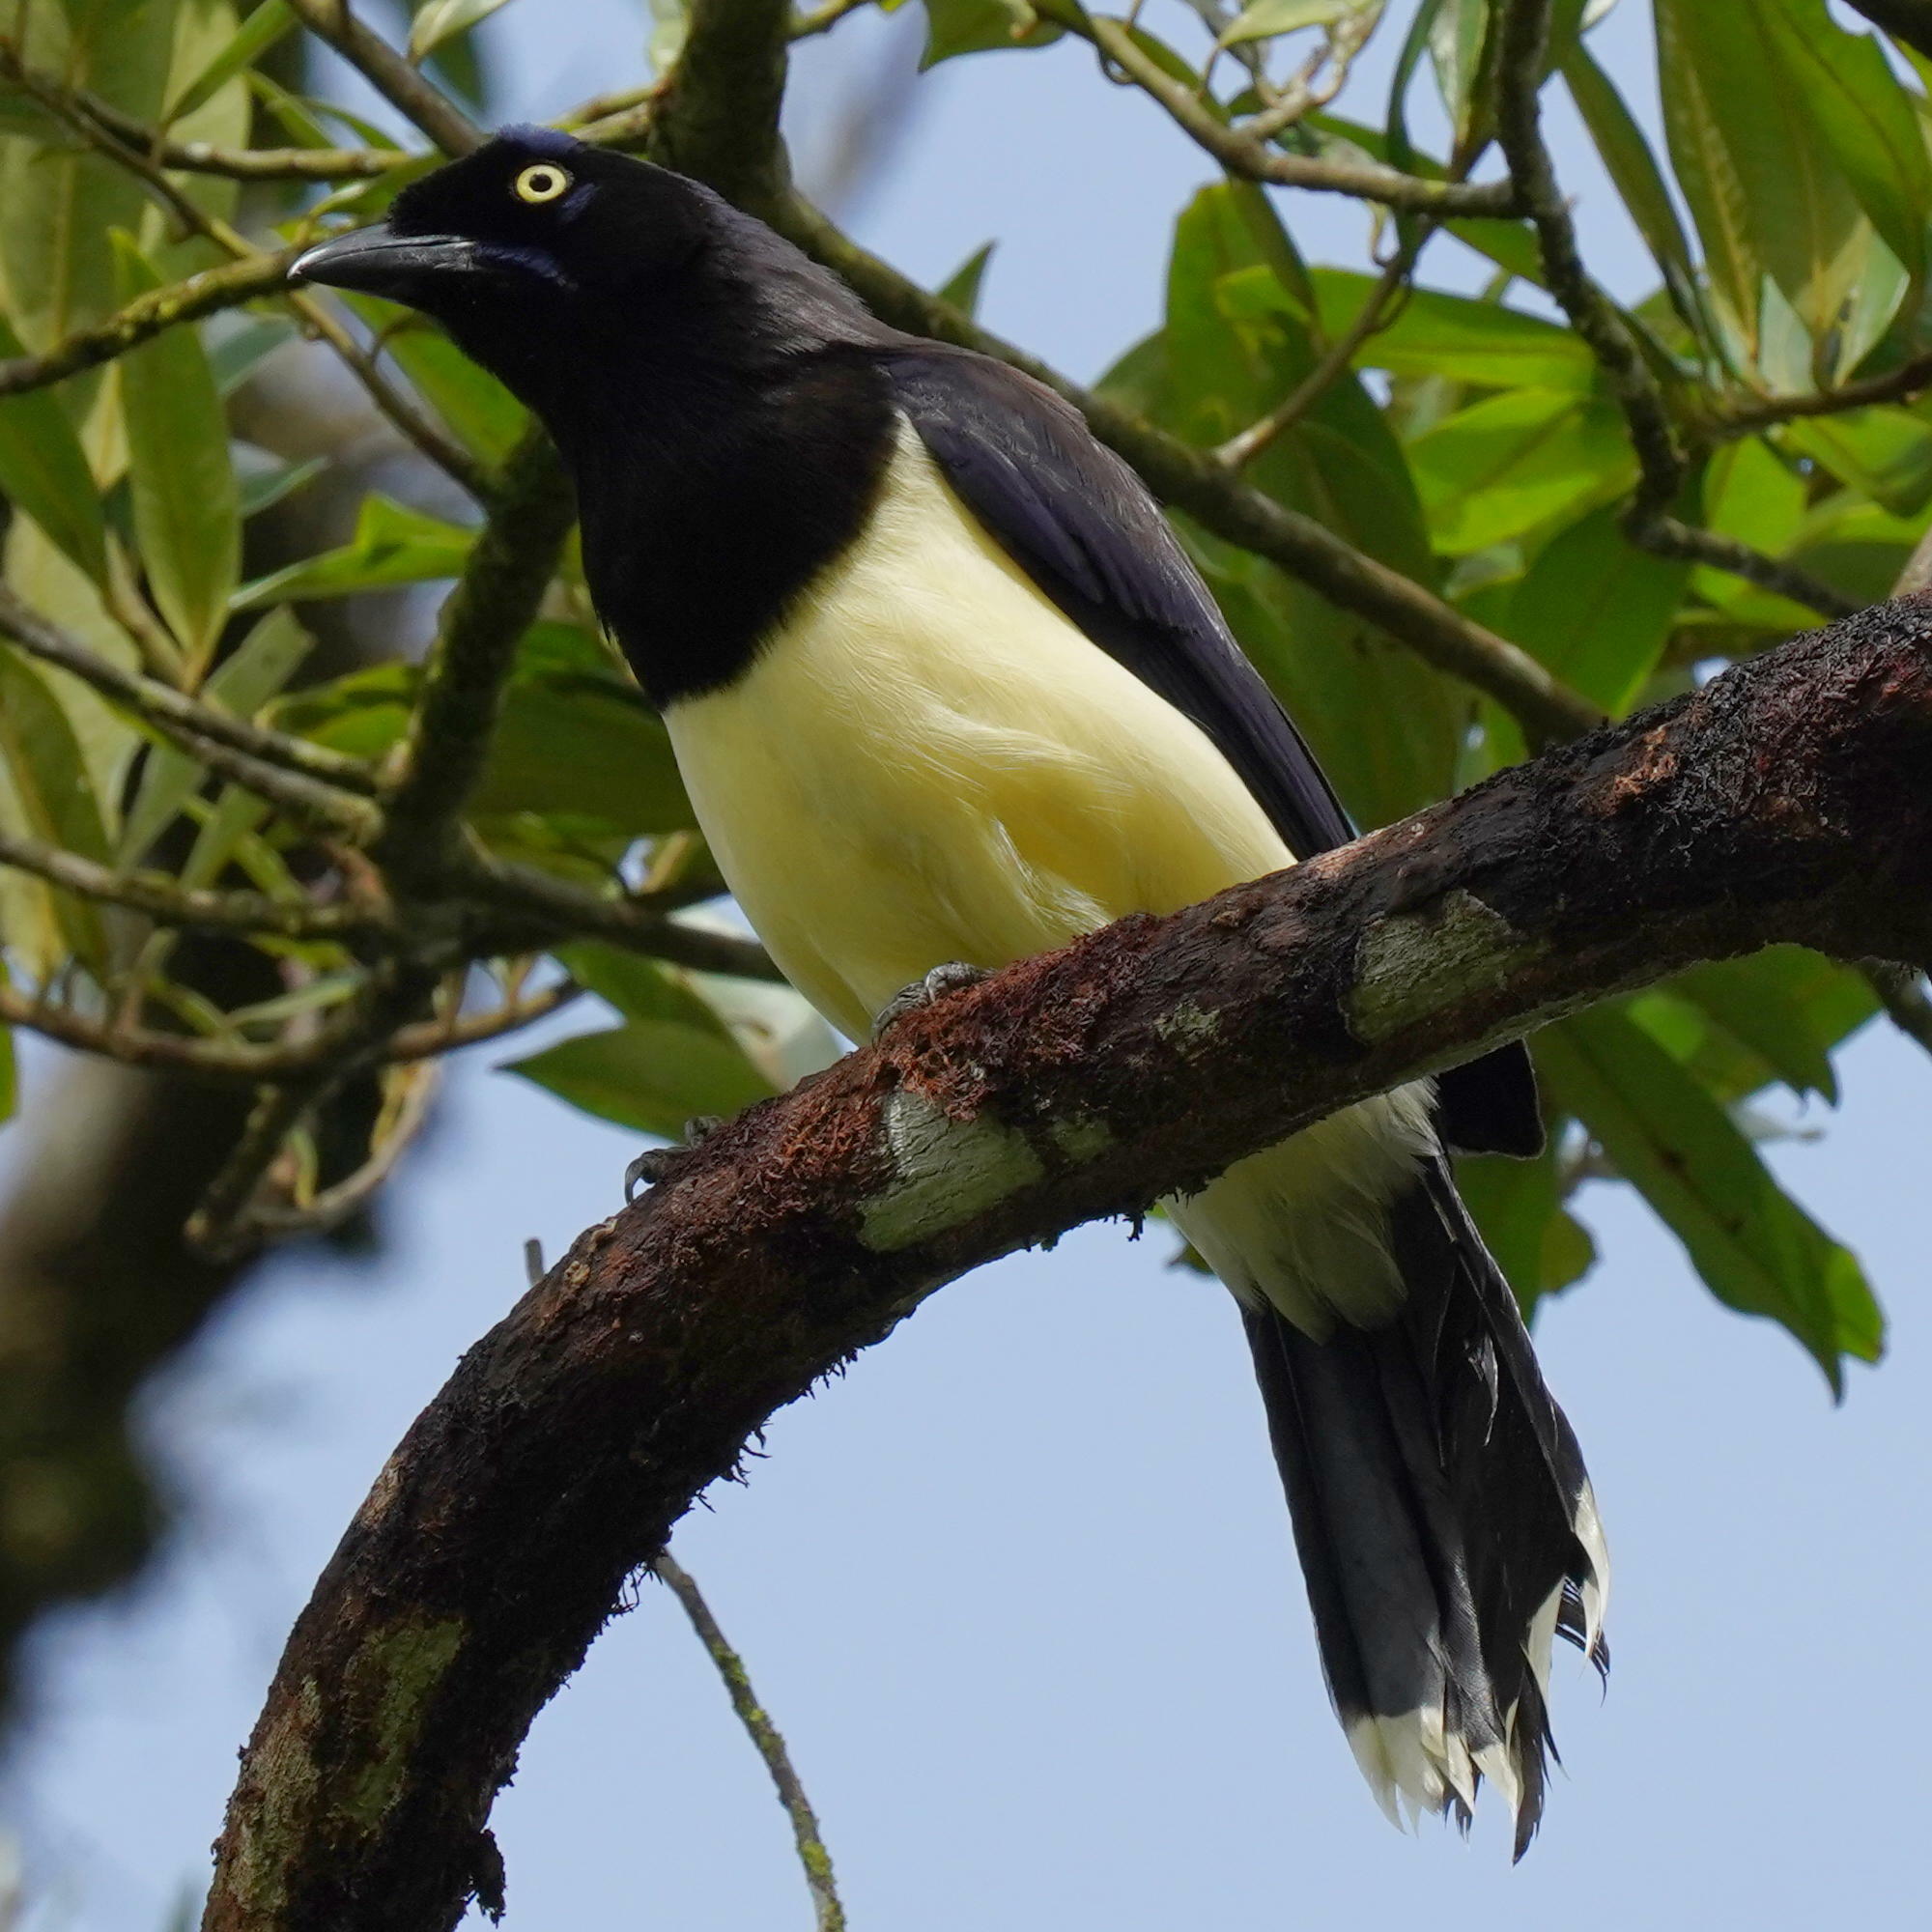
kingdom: Animalia
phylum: Chordata
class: Aves
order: Passeriformes
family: Corvidae
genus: Cyanocorax
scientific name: Cyanocorax affinis
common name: Black-chested jay
